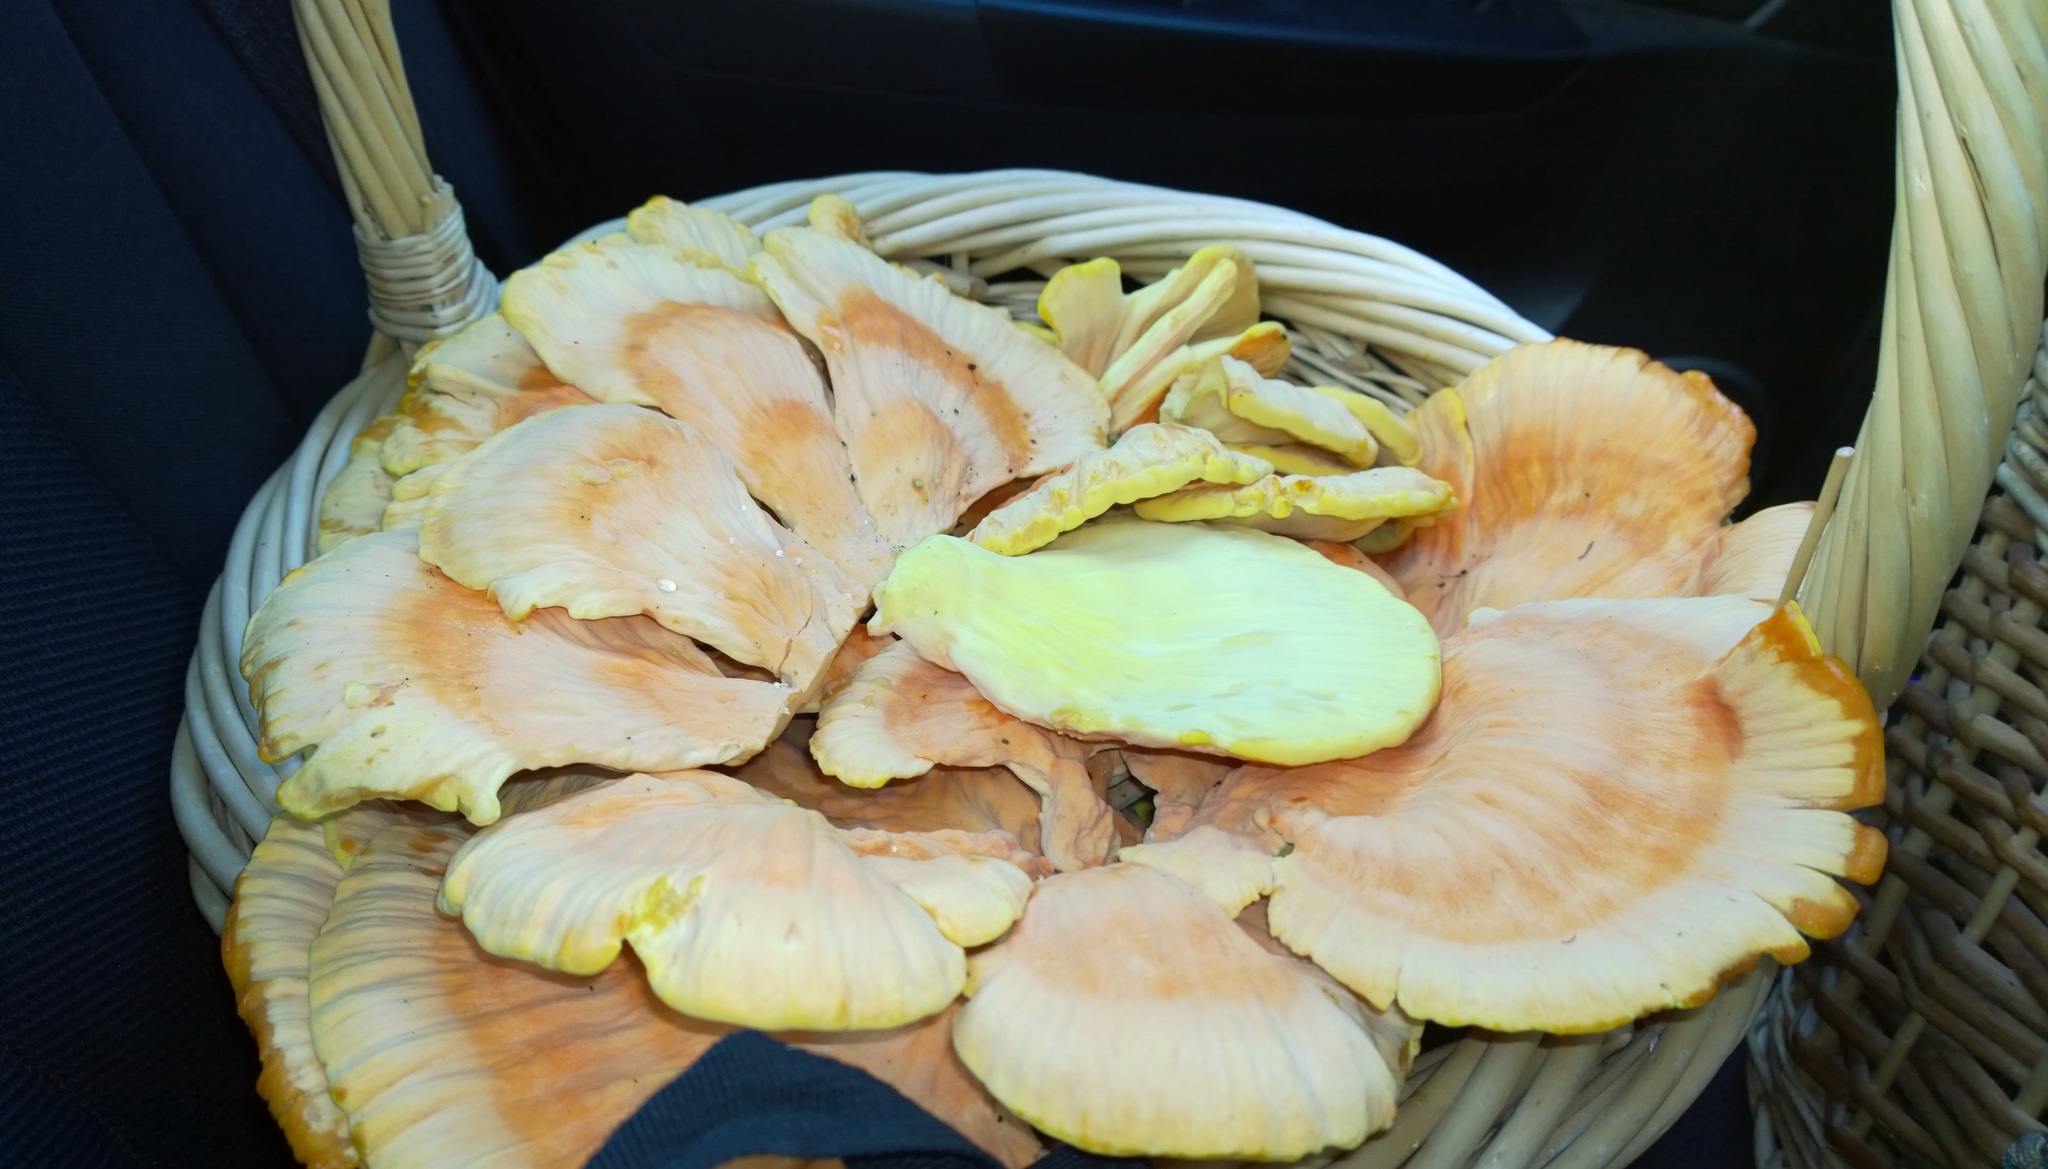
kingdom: Fungi
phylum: Basidiomycota
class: Agaricomycetes
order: Polyporales
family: Laetiporaceae
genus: Laetiporus
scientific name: Laetiporus sulphureus
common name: Chicken of the woods
